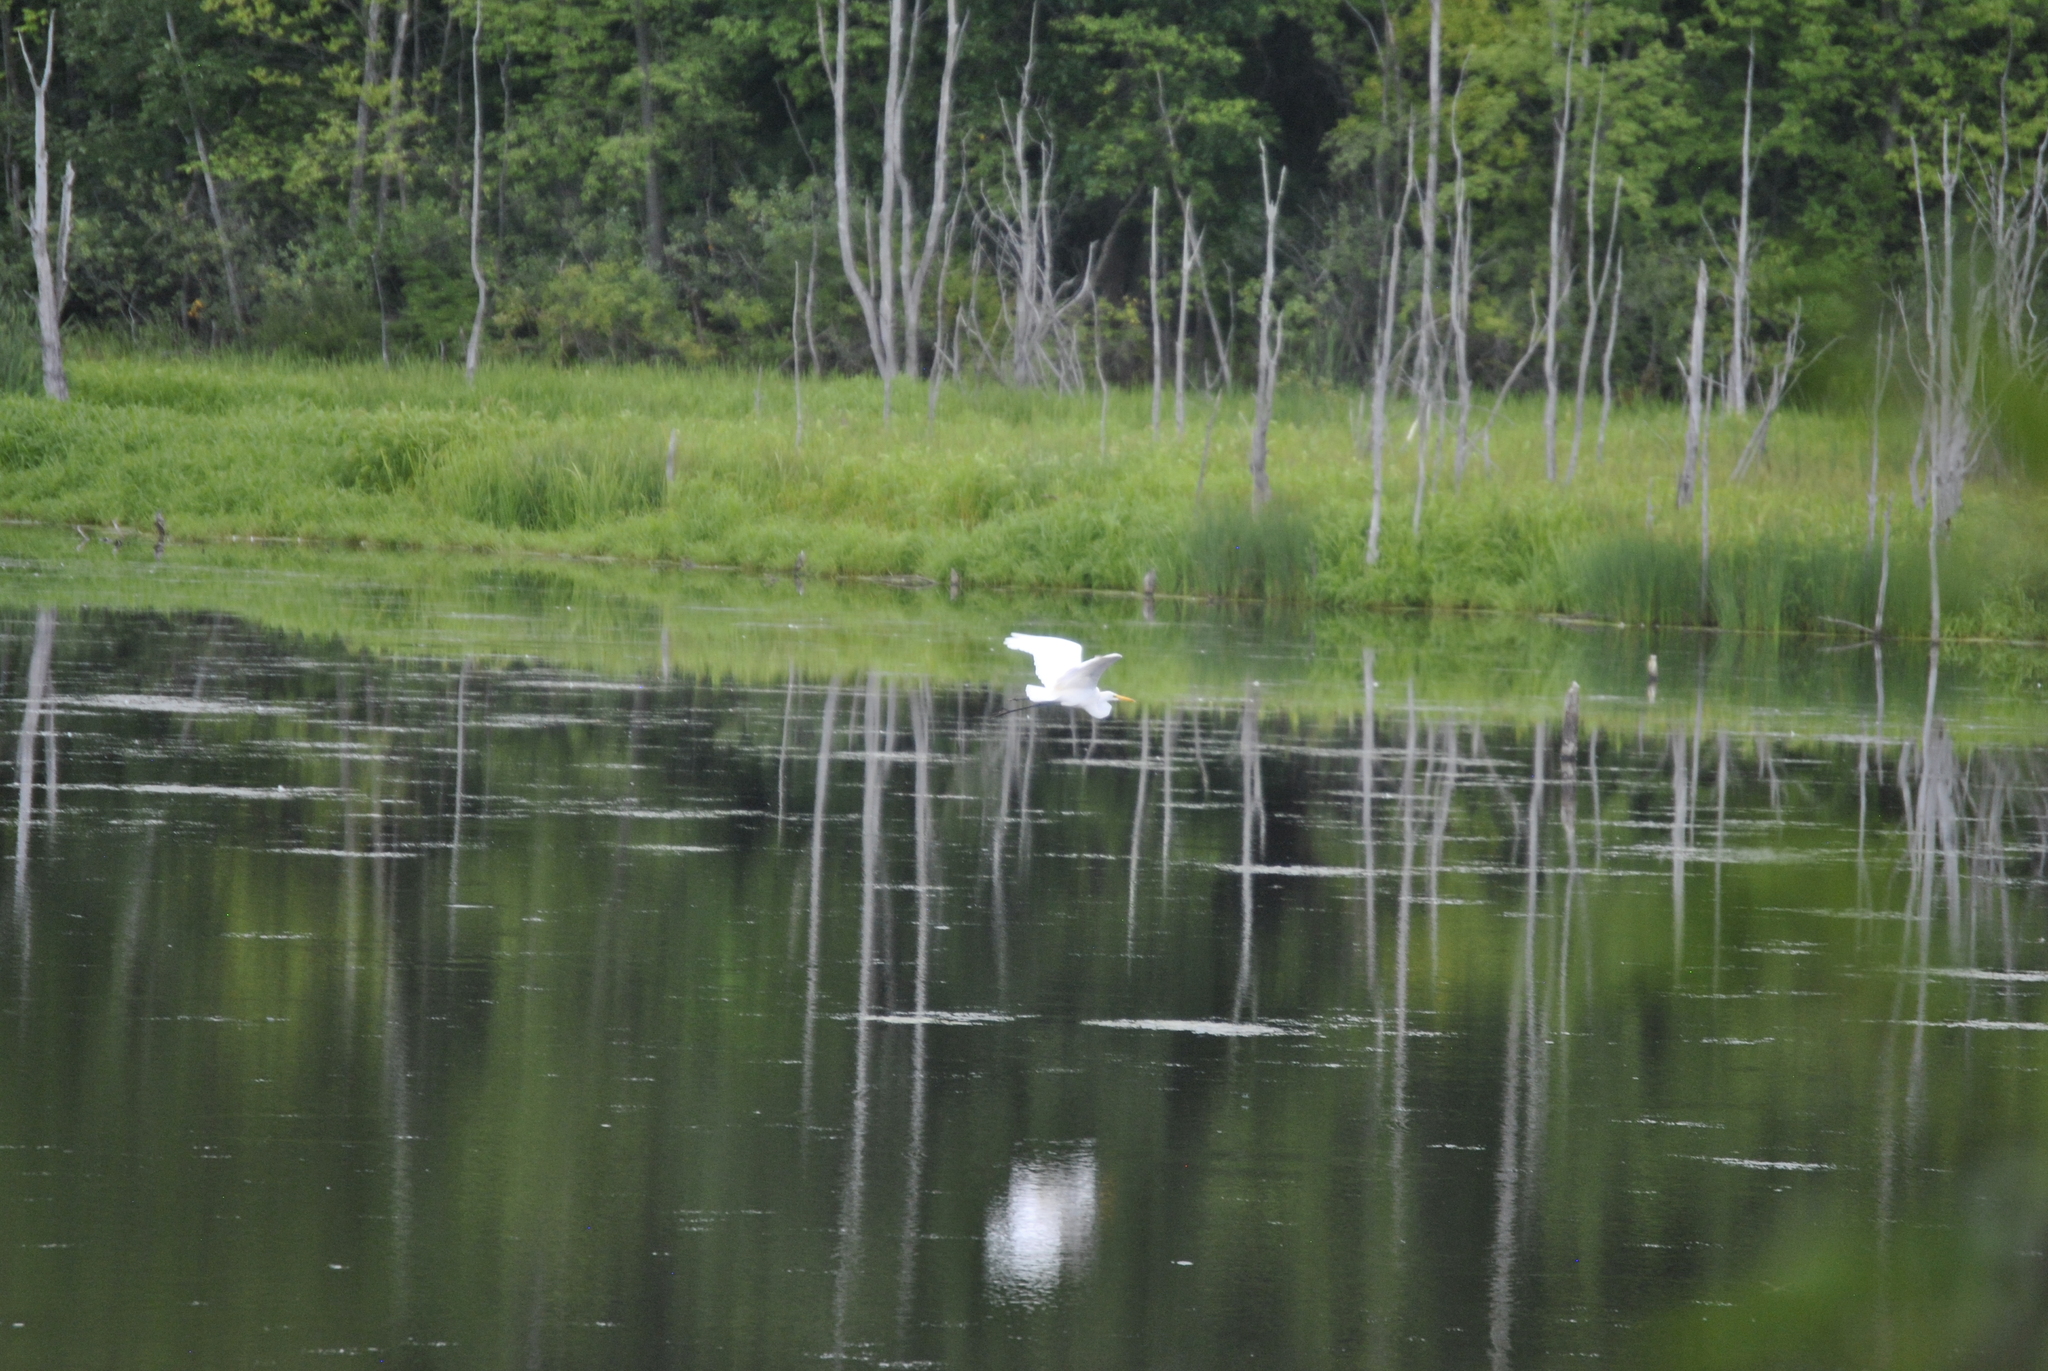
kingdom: Animalia
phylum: Chordata
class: Aves
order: Pelecaniformes
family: Ardeidae
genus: Ardea
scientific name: Ardea alba
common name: Great egret
